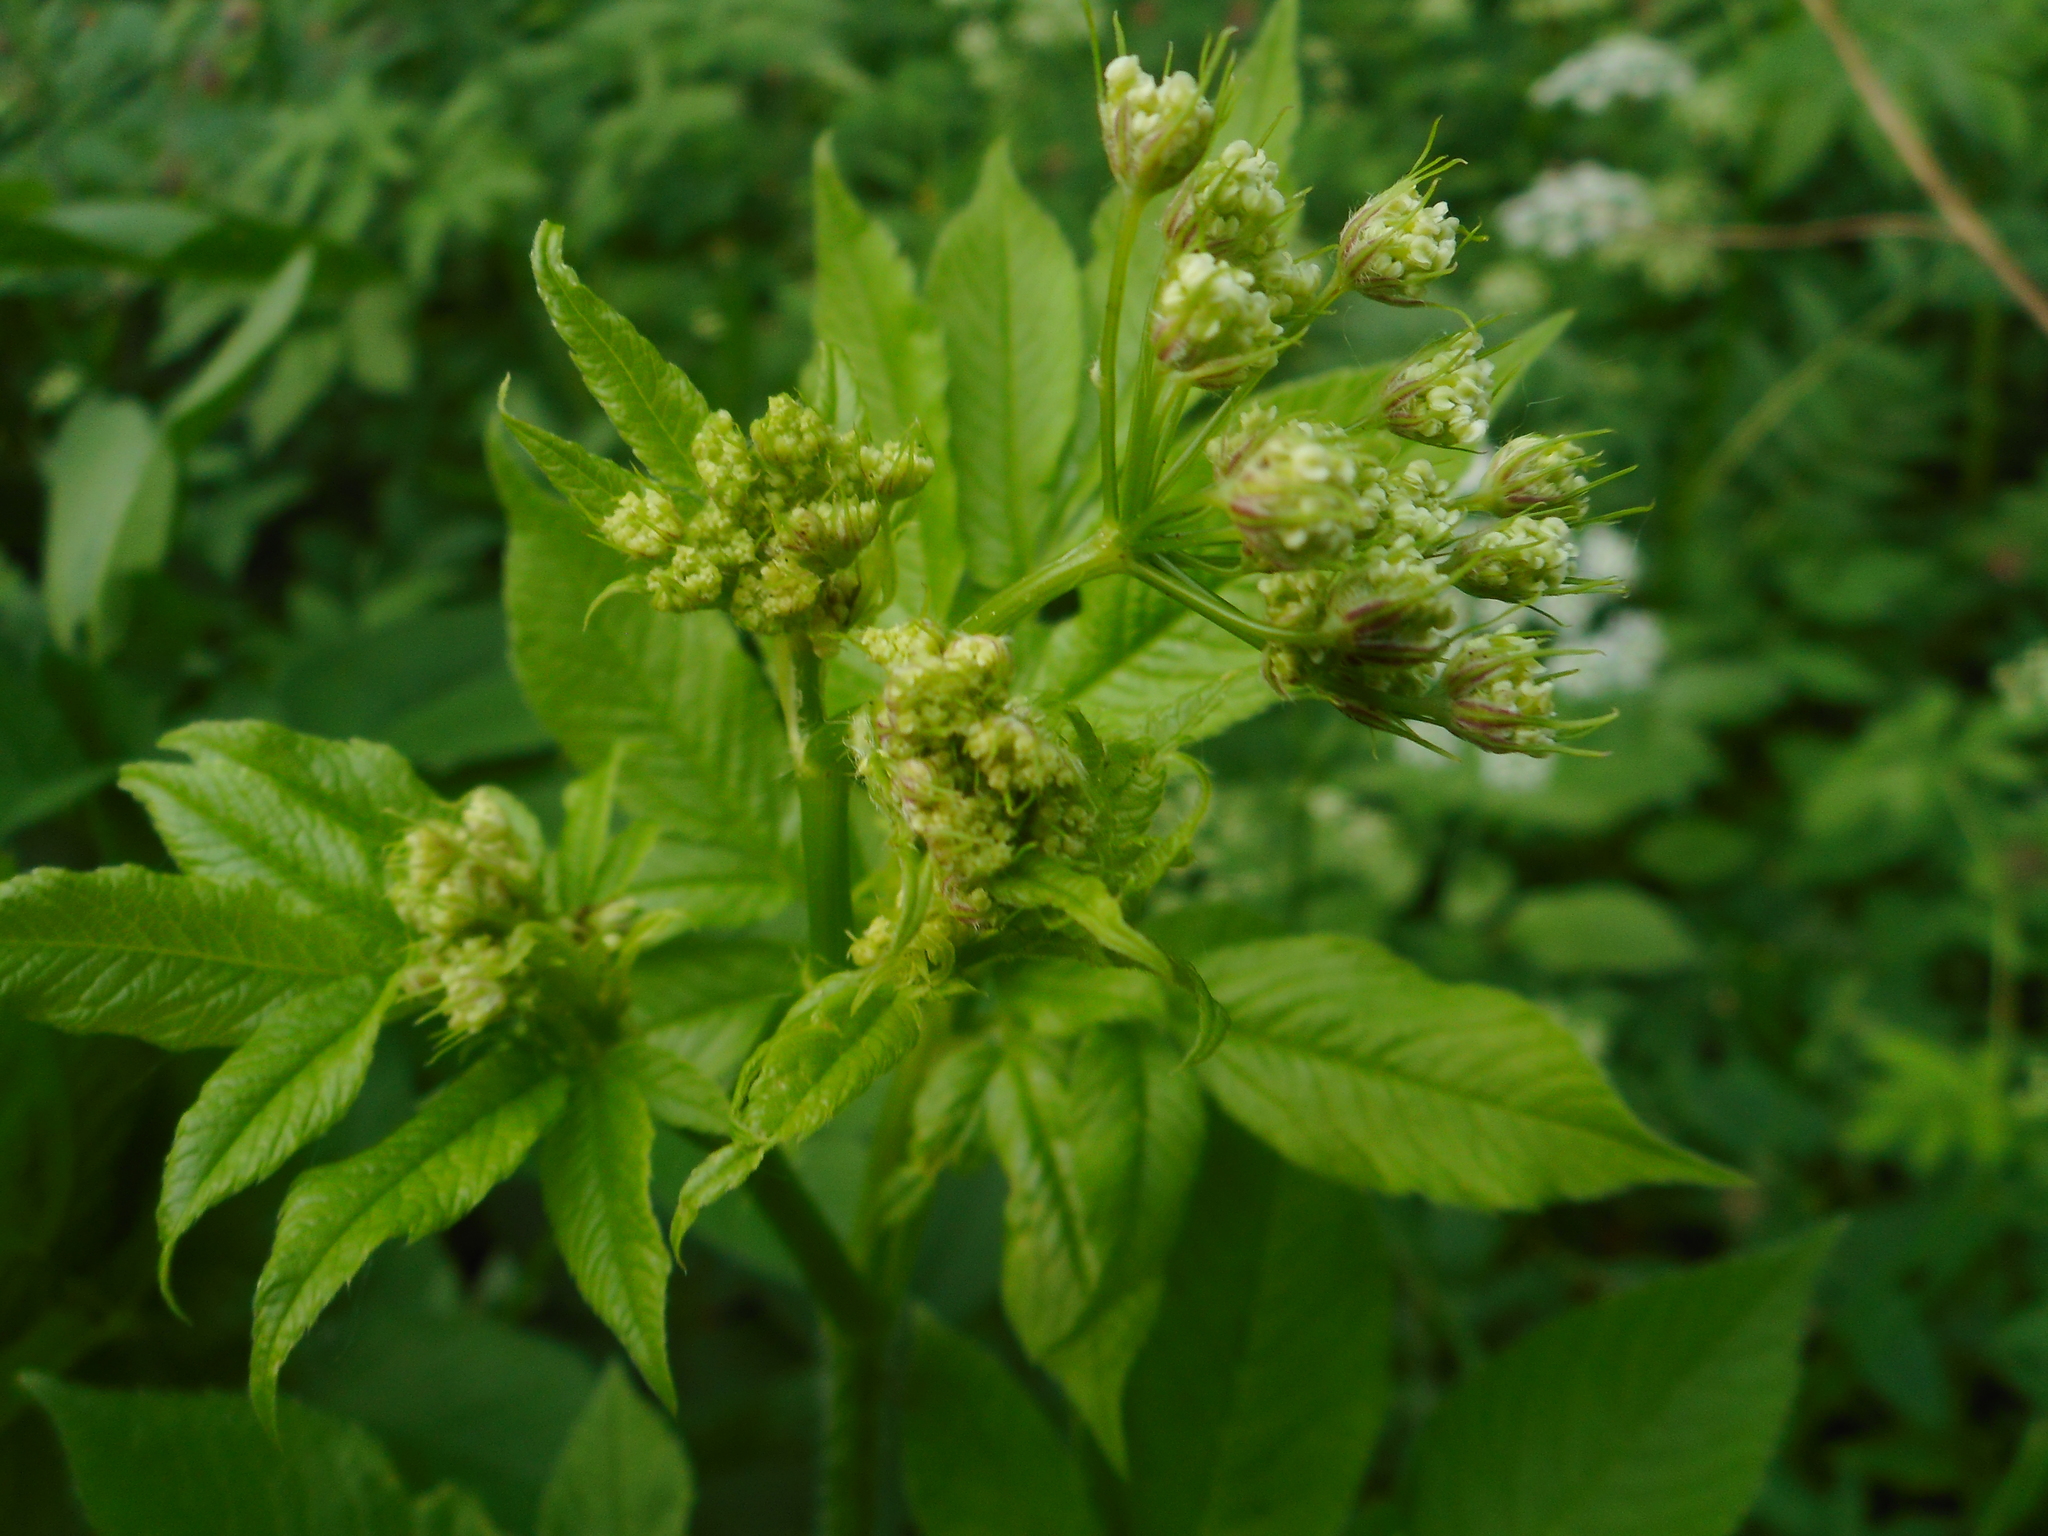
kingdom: Plantae
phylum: Tracheophyta
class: Magnoliopsida
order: Apiales
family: Apiaceae
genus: Chaerophyllum
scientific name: Chaerophyllum aromaticum
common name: Broadleaf chervil
